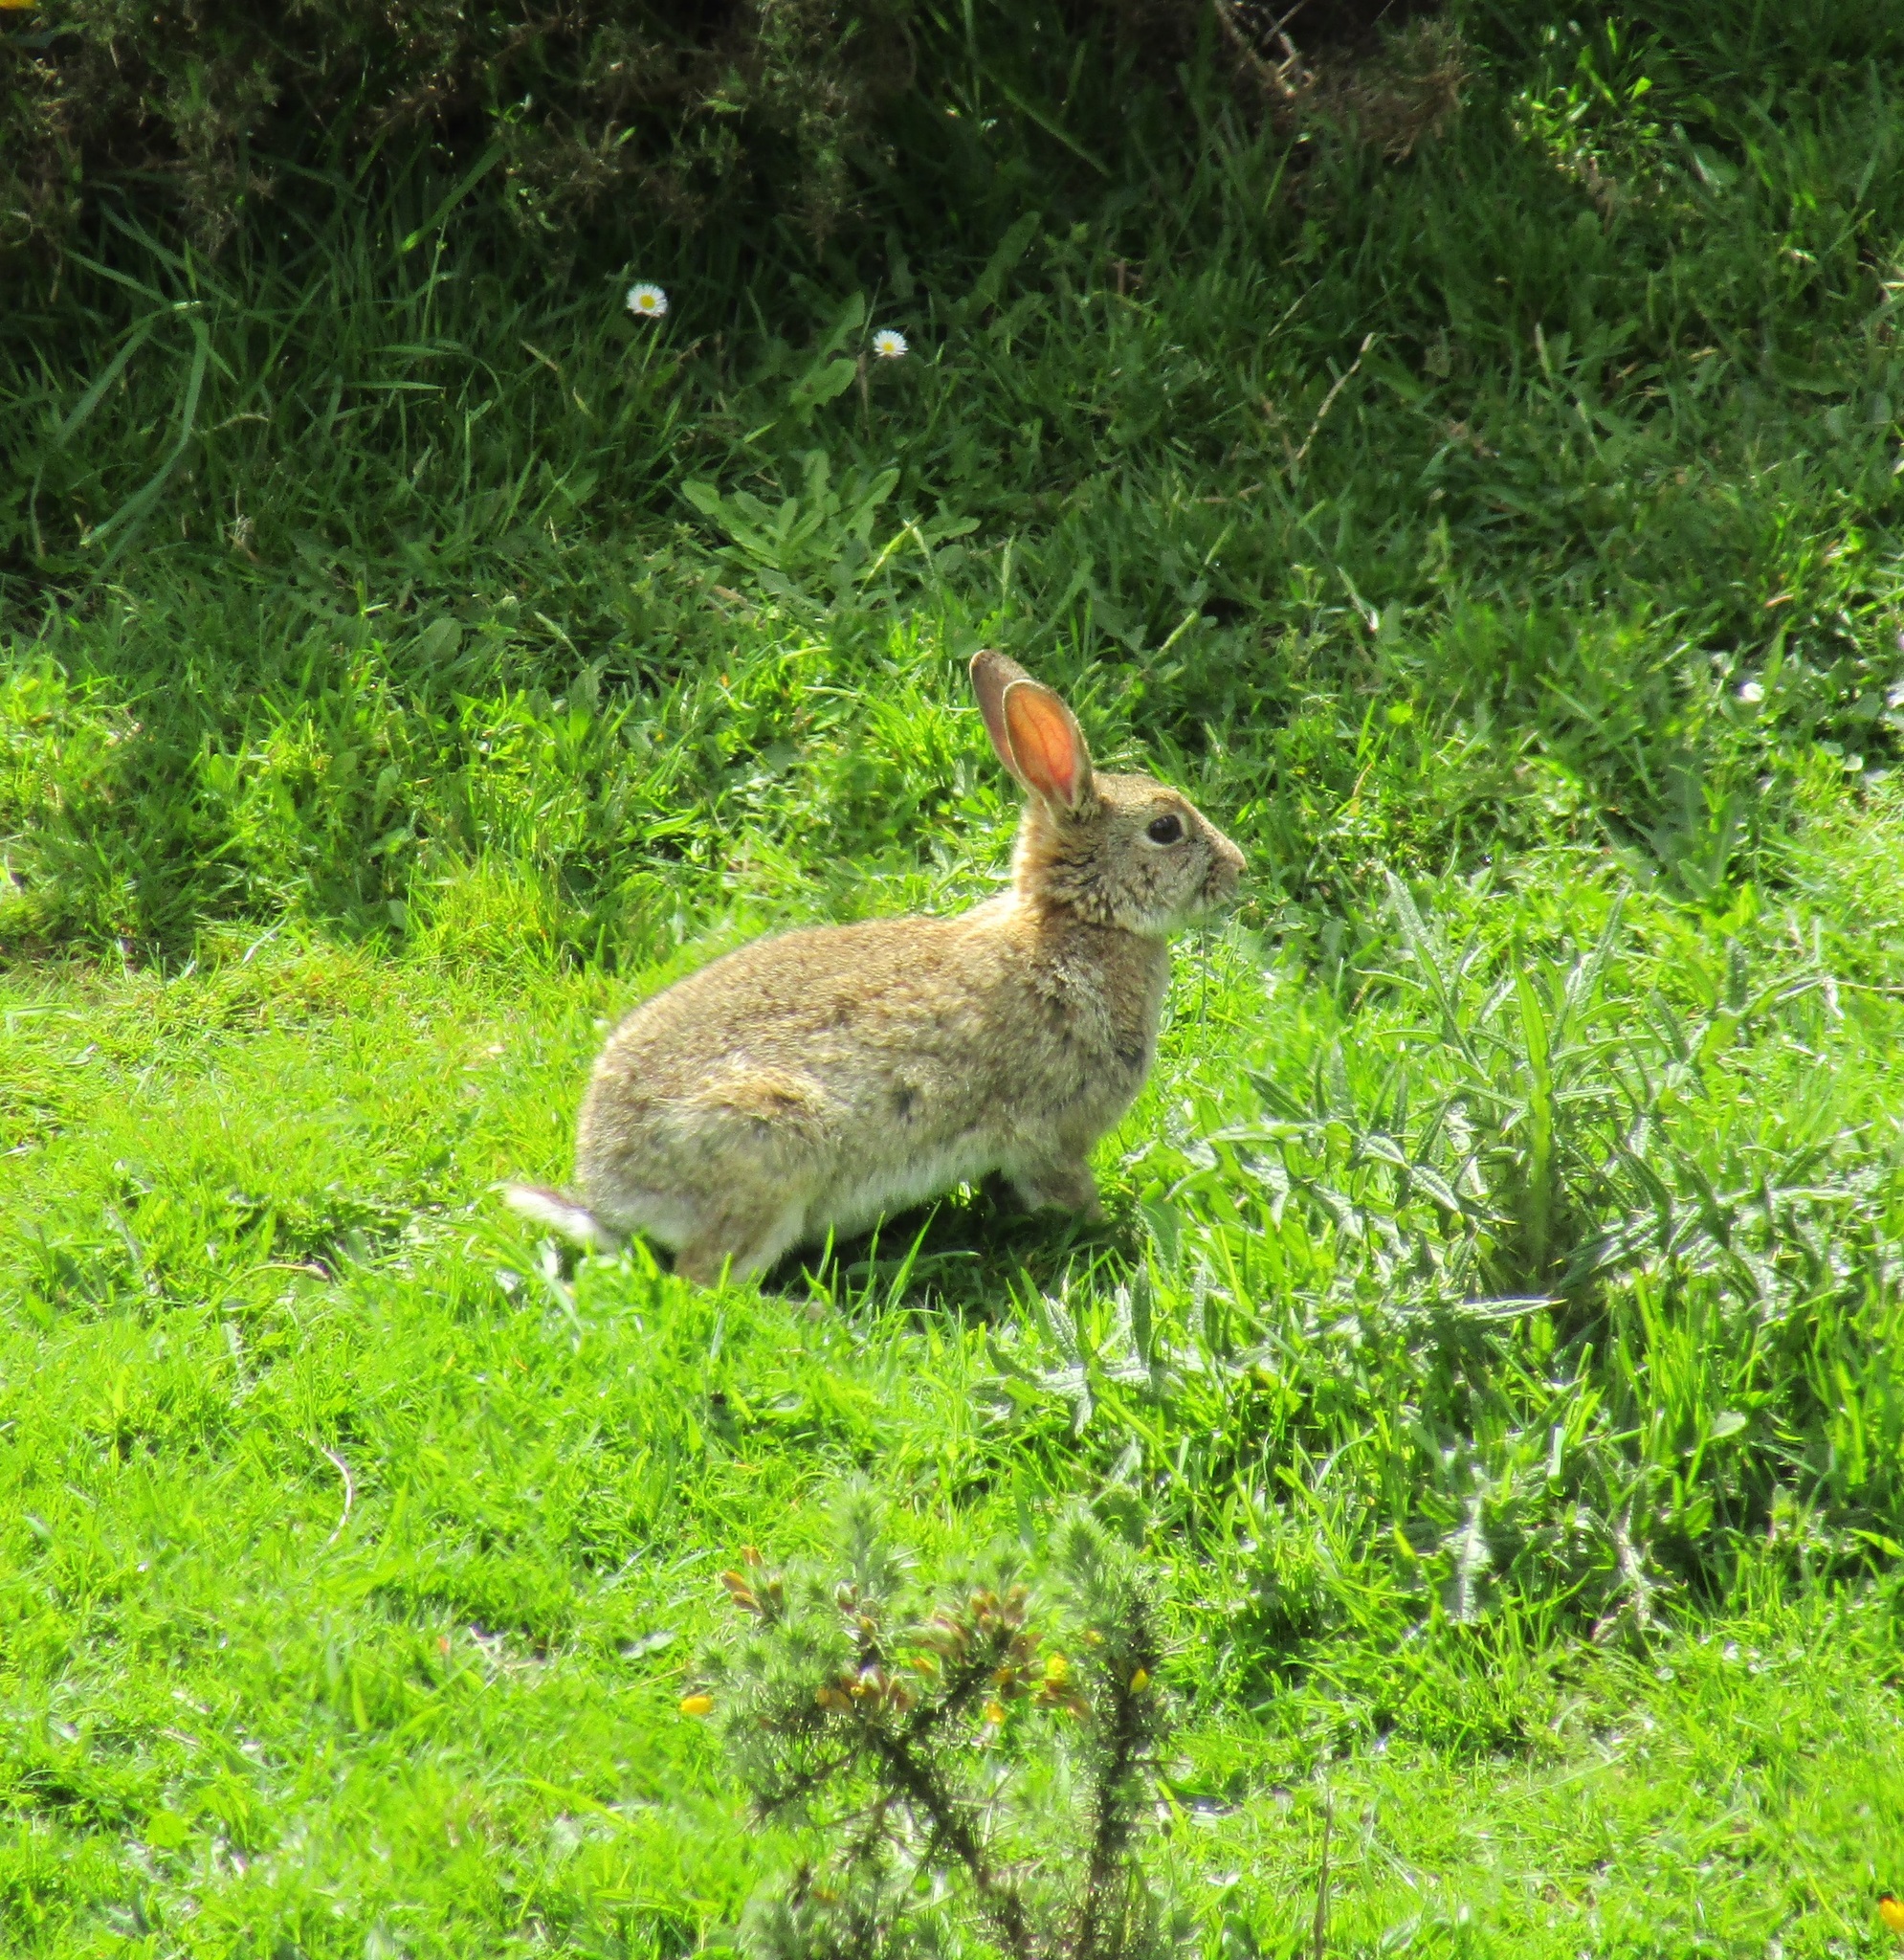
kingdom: Animalia
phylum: Chordata
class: Mammalia
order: Lagomorpha
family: Leporidae
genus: Oryctolagus
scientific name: Oryctolagus cuniculus
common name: European rabbit
